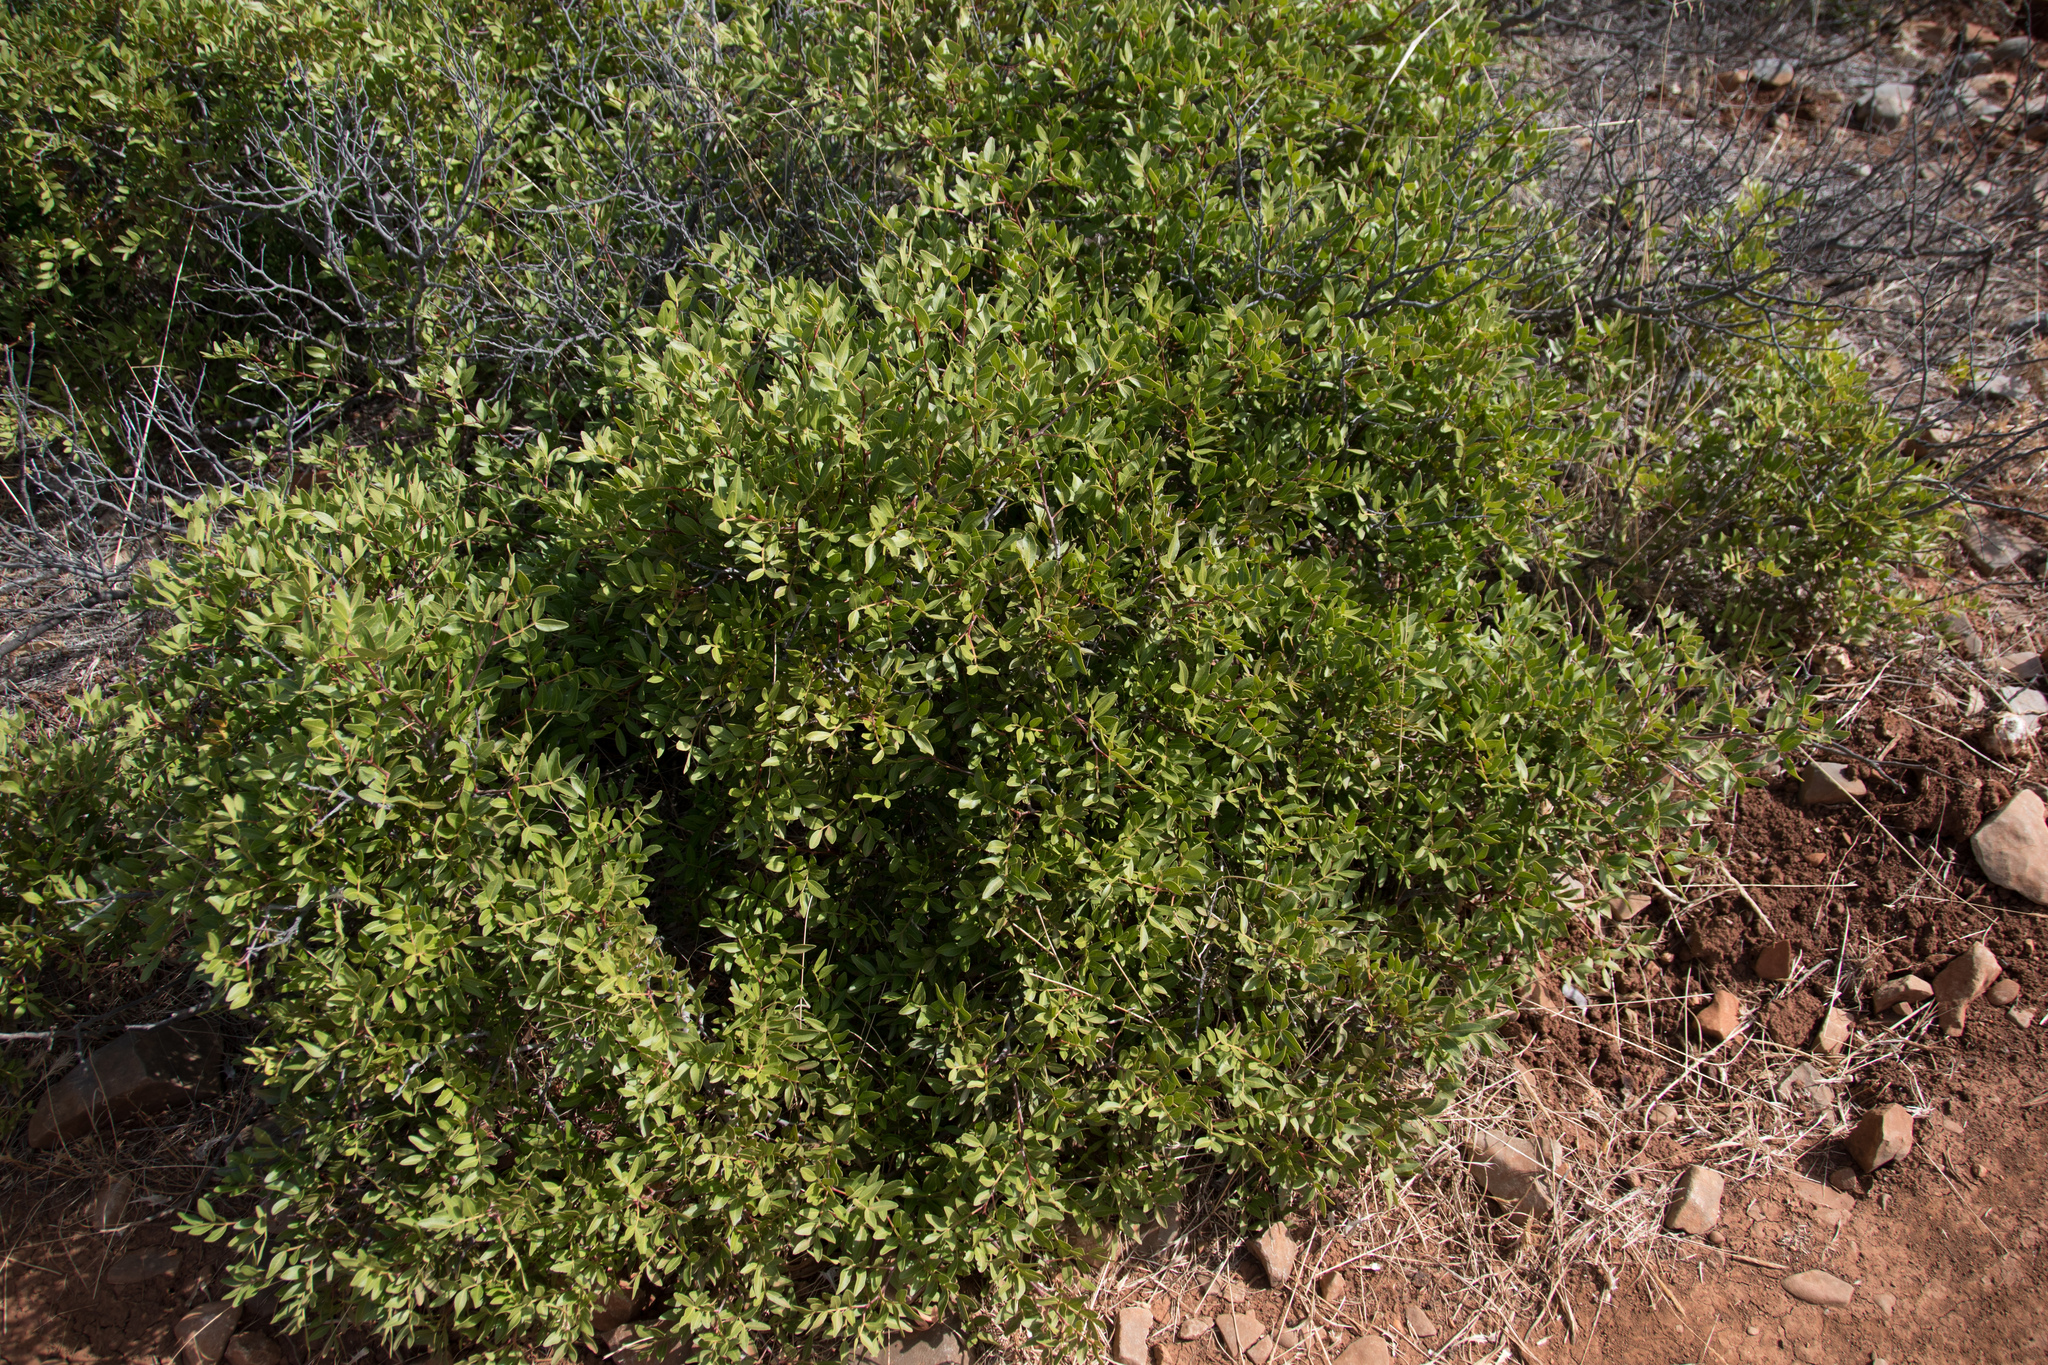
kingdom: Plantae
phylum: Tracheophyta
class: Magnoliopsida
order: Sapindales
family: Anacardiaceae
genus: Pistacia
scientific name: Pistacia lentiscus
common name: Lentisk
